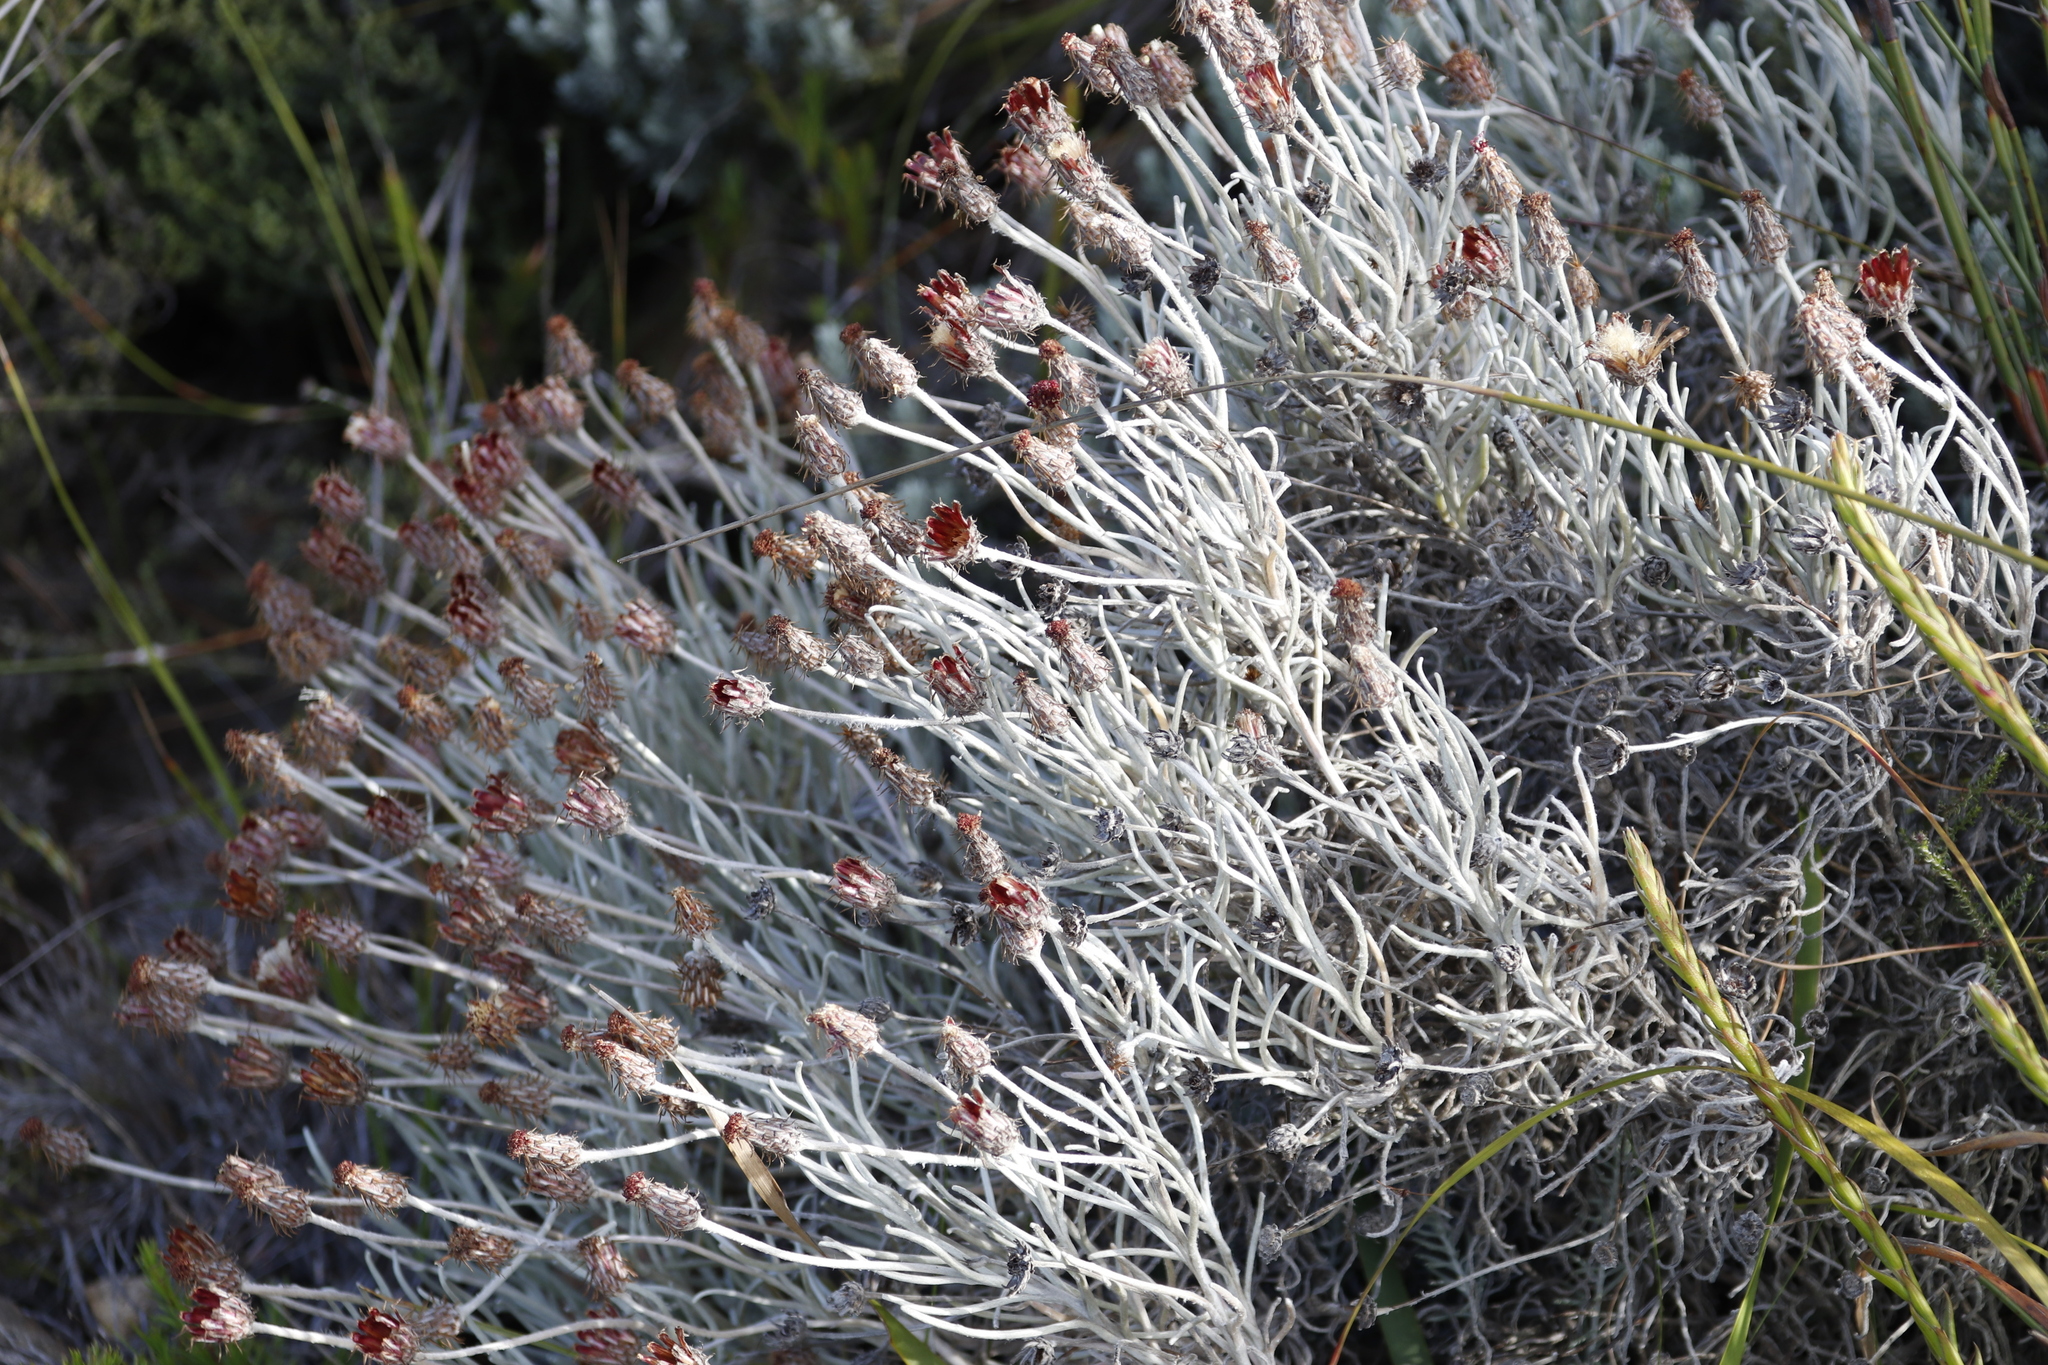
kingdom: Plantae
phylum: Tracheophyta
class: Magnoliopsida
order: Asterales
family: Asteraceae
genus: Syncarpha
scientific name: Syncarpha gnaphaloides
